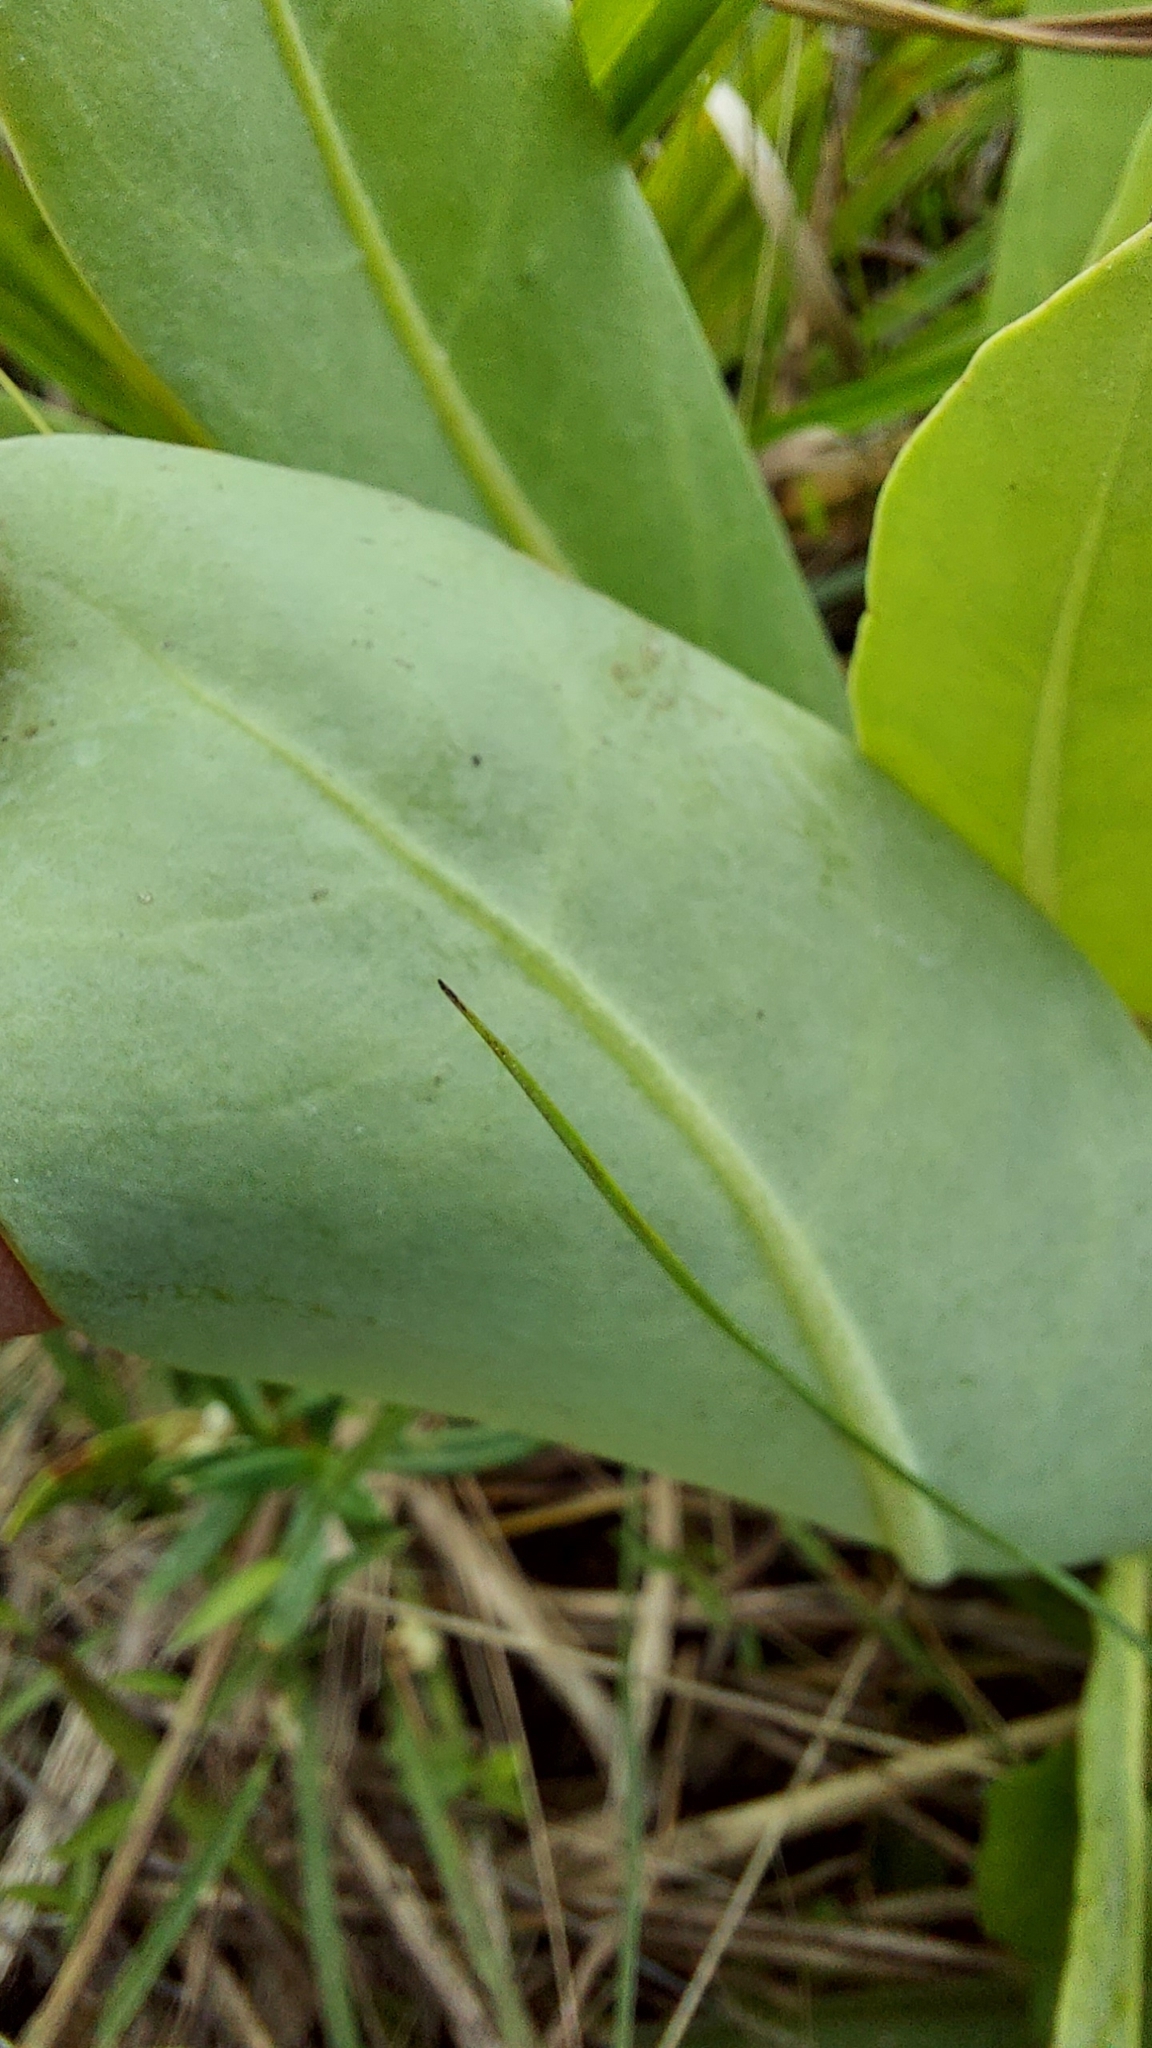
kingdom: Plantae
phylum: Tracheophyta
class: Magnoliopsida
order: Ericales
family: Primulaceae
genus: Samolus
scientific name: Samolus ebracteatus
